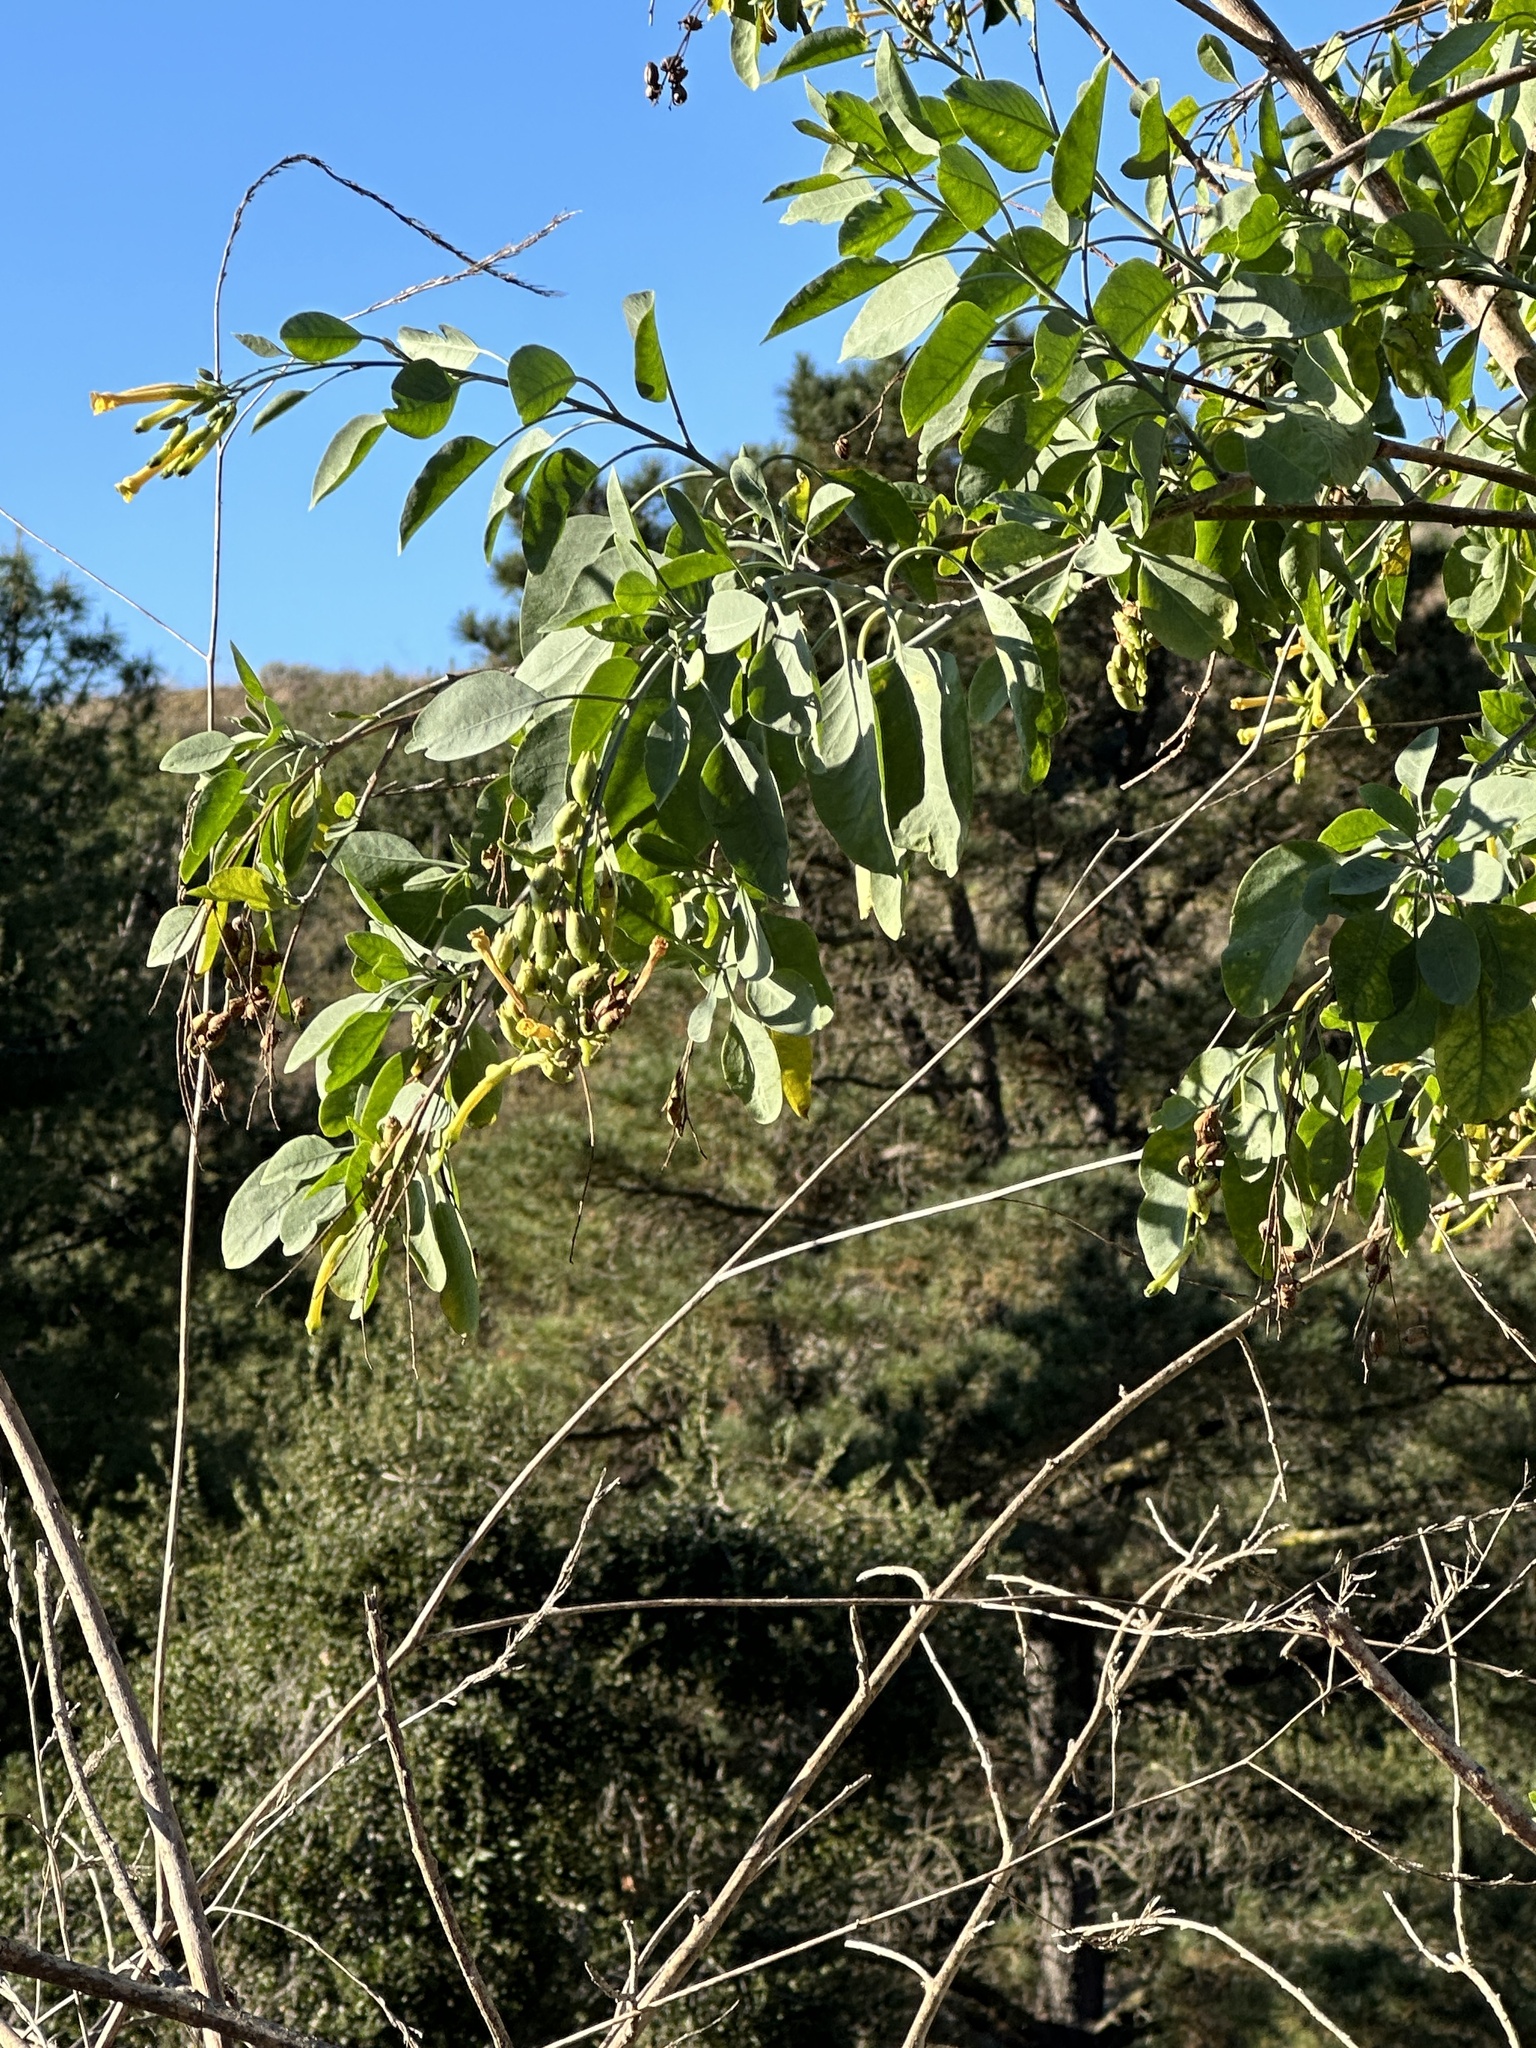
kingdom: Plantae
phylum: Tracheophyta
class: Magnoliopsida
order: Solanales
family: Solanaceae
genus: Nicotiana
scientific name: Nicotiana glauca
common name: Tree tobacco
